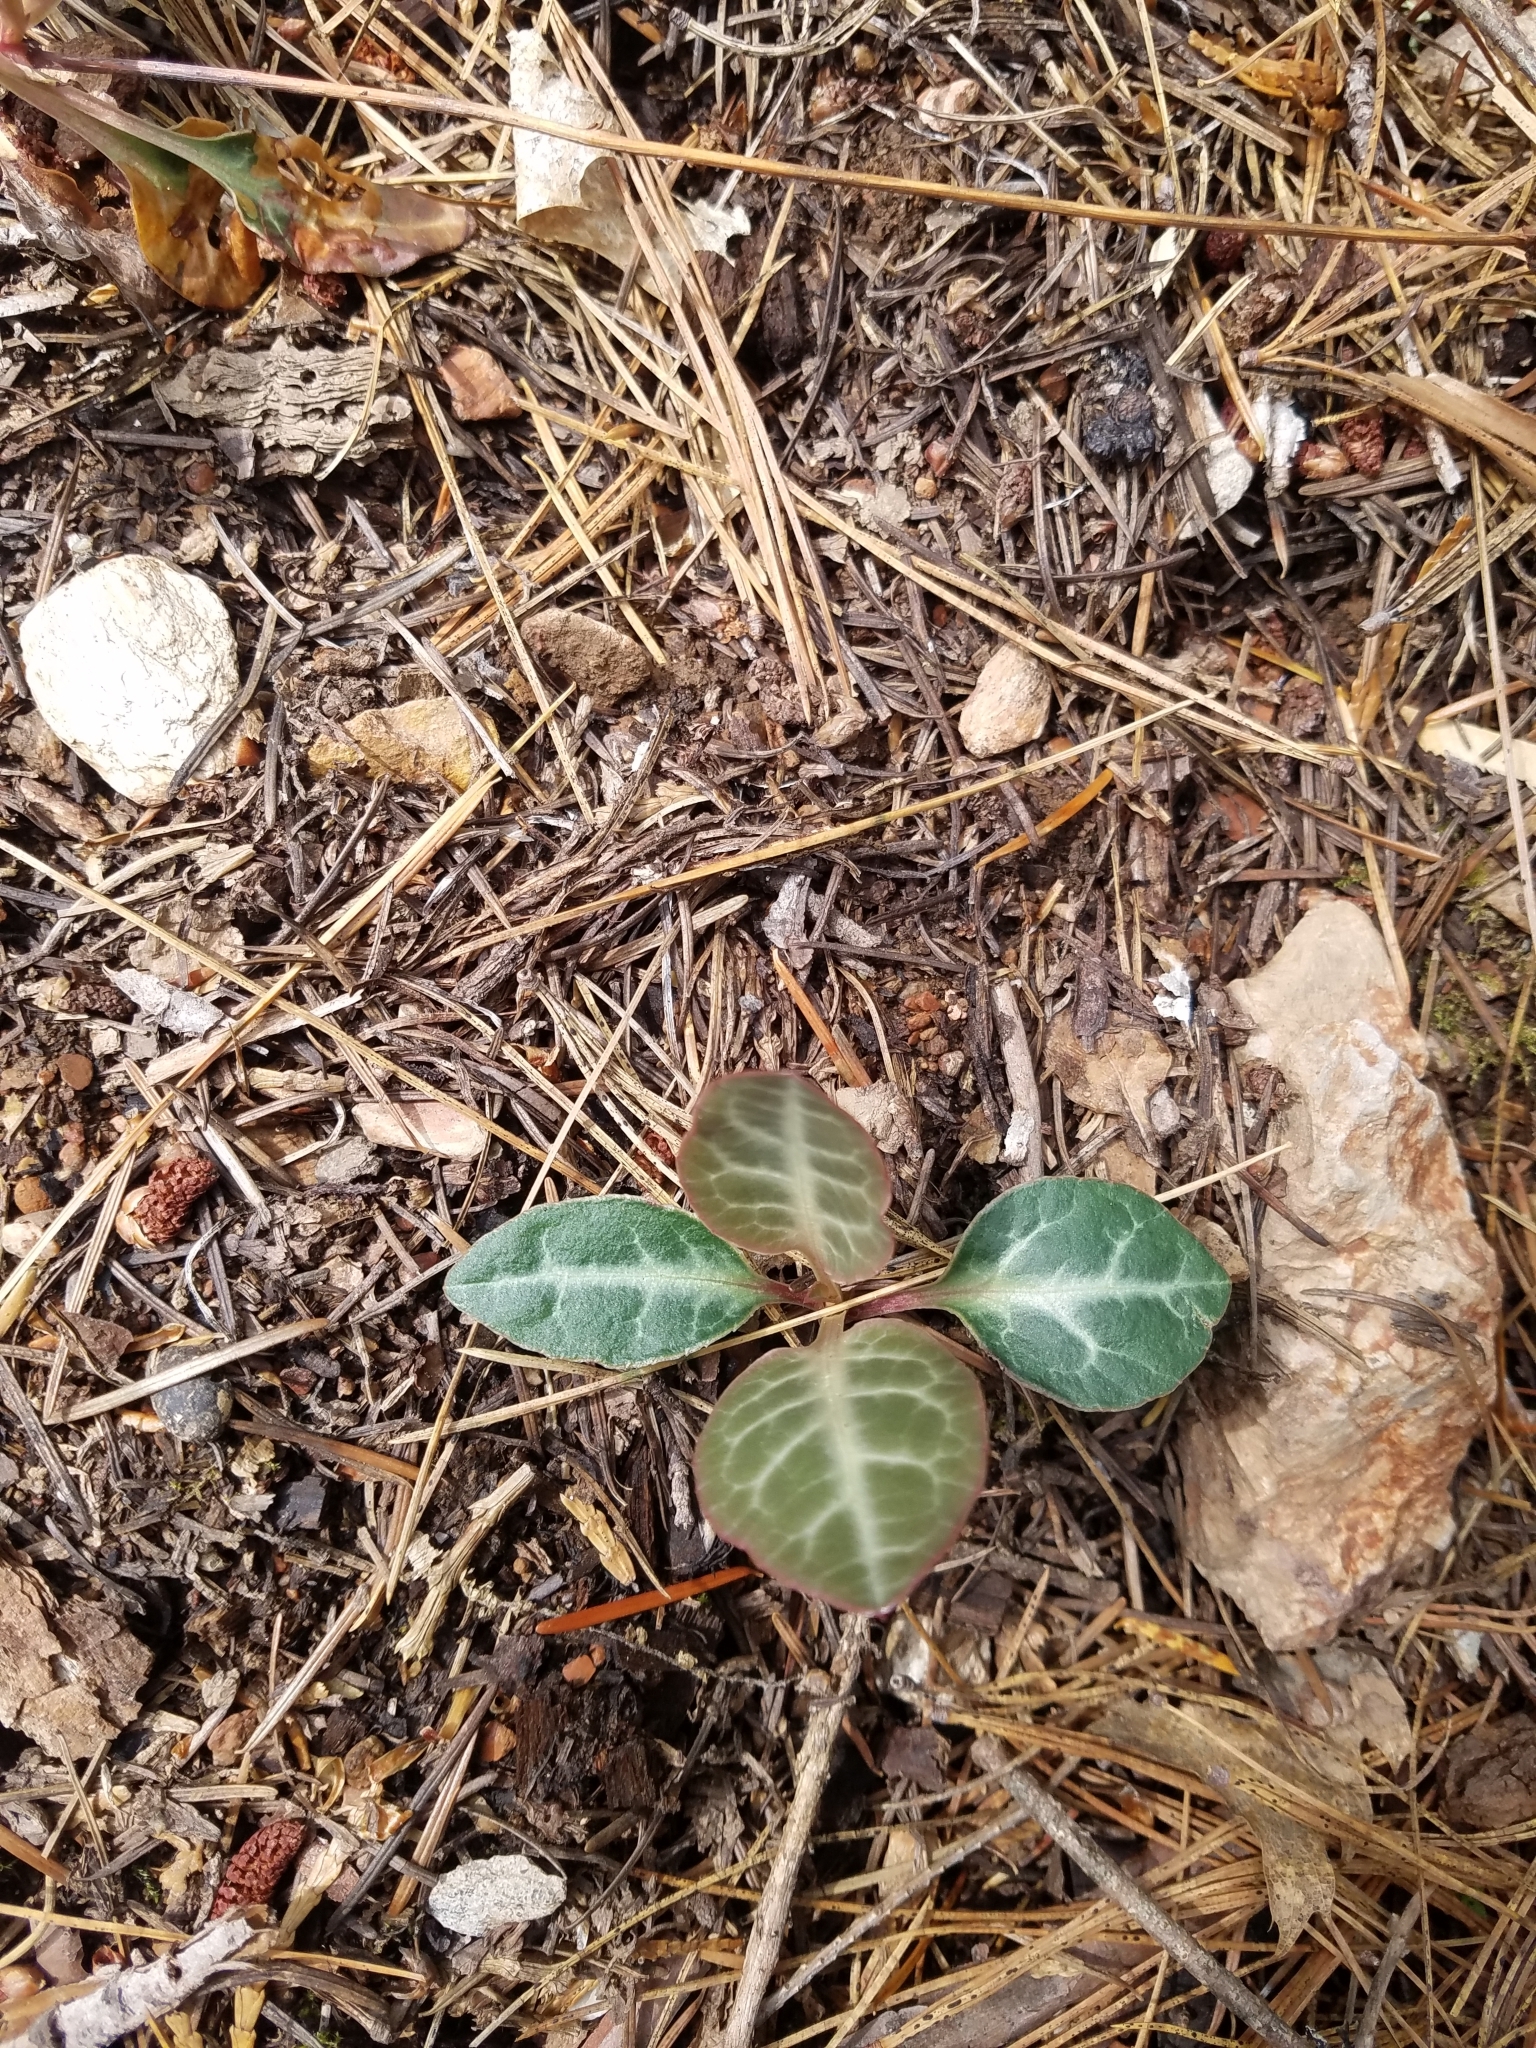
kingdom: Plantae
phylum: Tracheophyta
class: Magnoliopsida
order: Ericales
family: Ericaceae
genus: Pyrola
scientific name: Pyrola picta
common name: White-vein wintergreen
